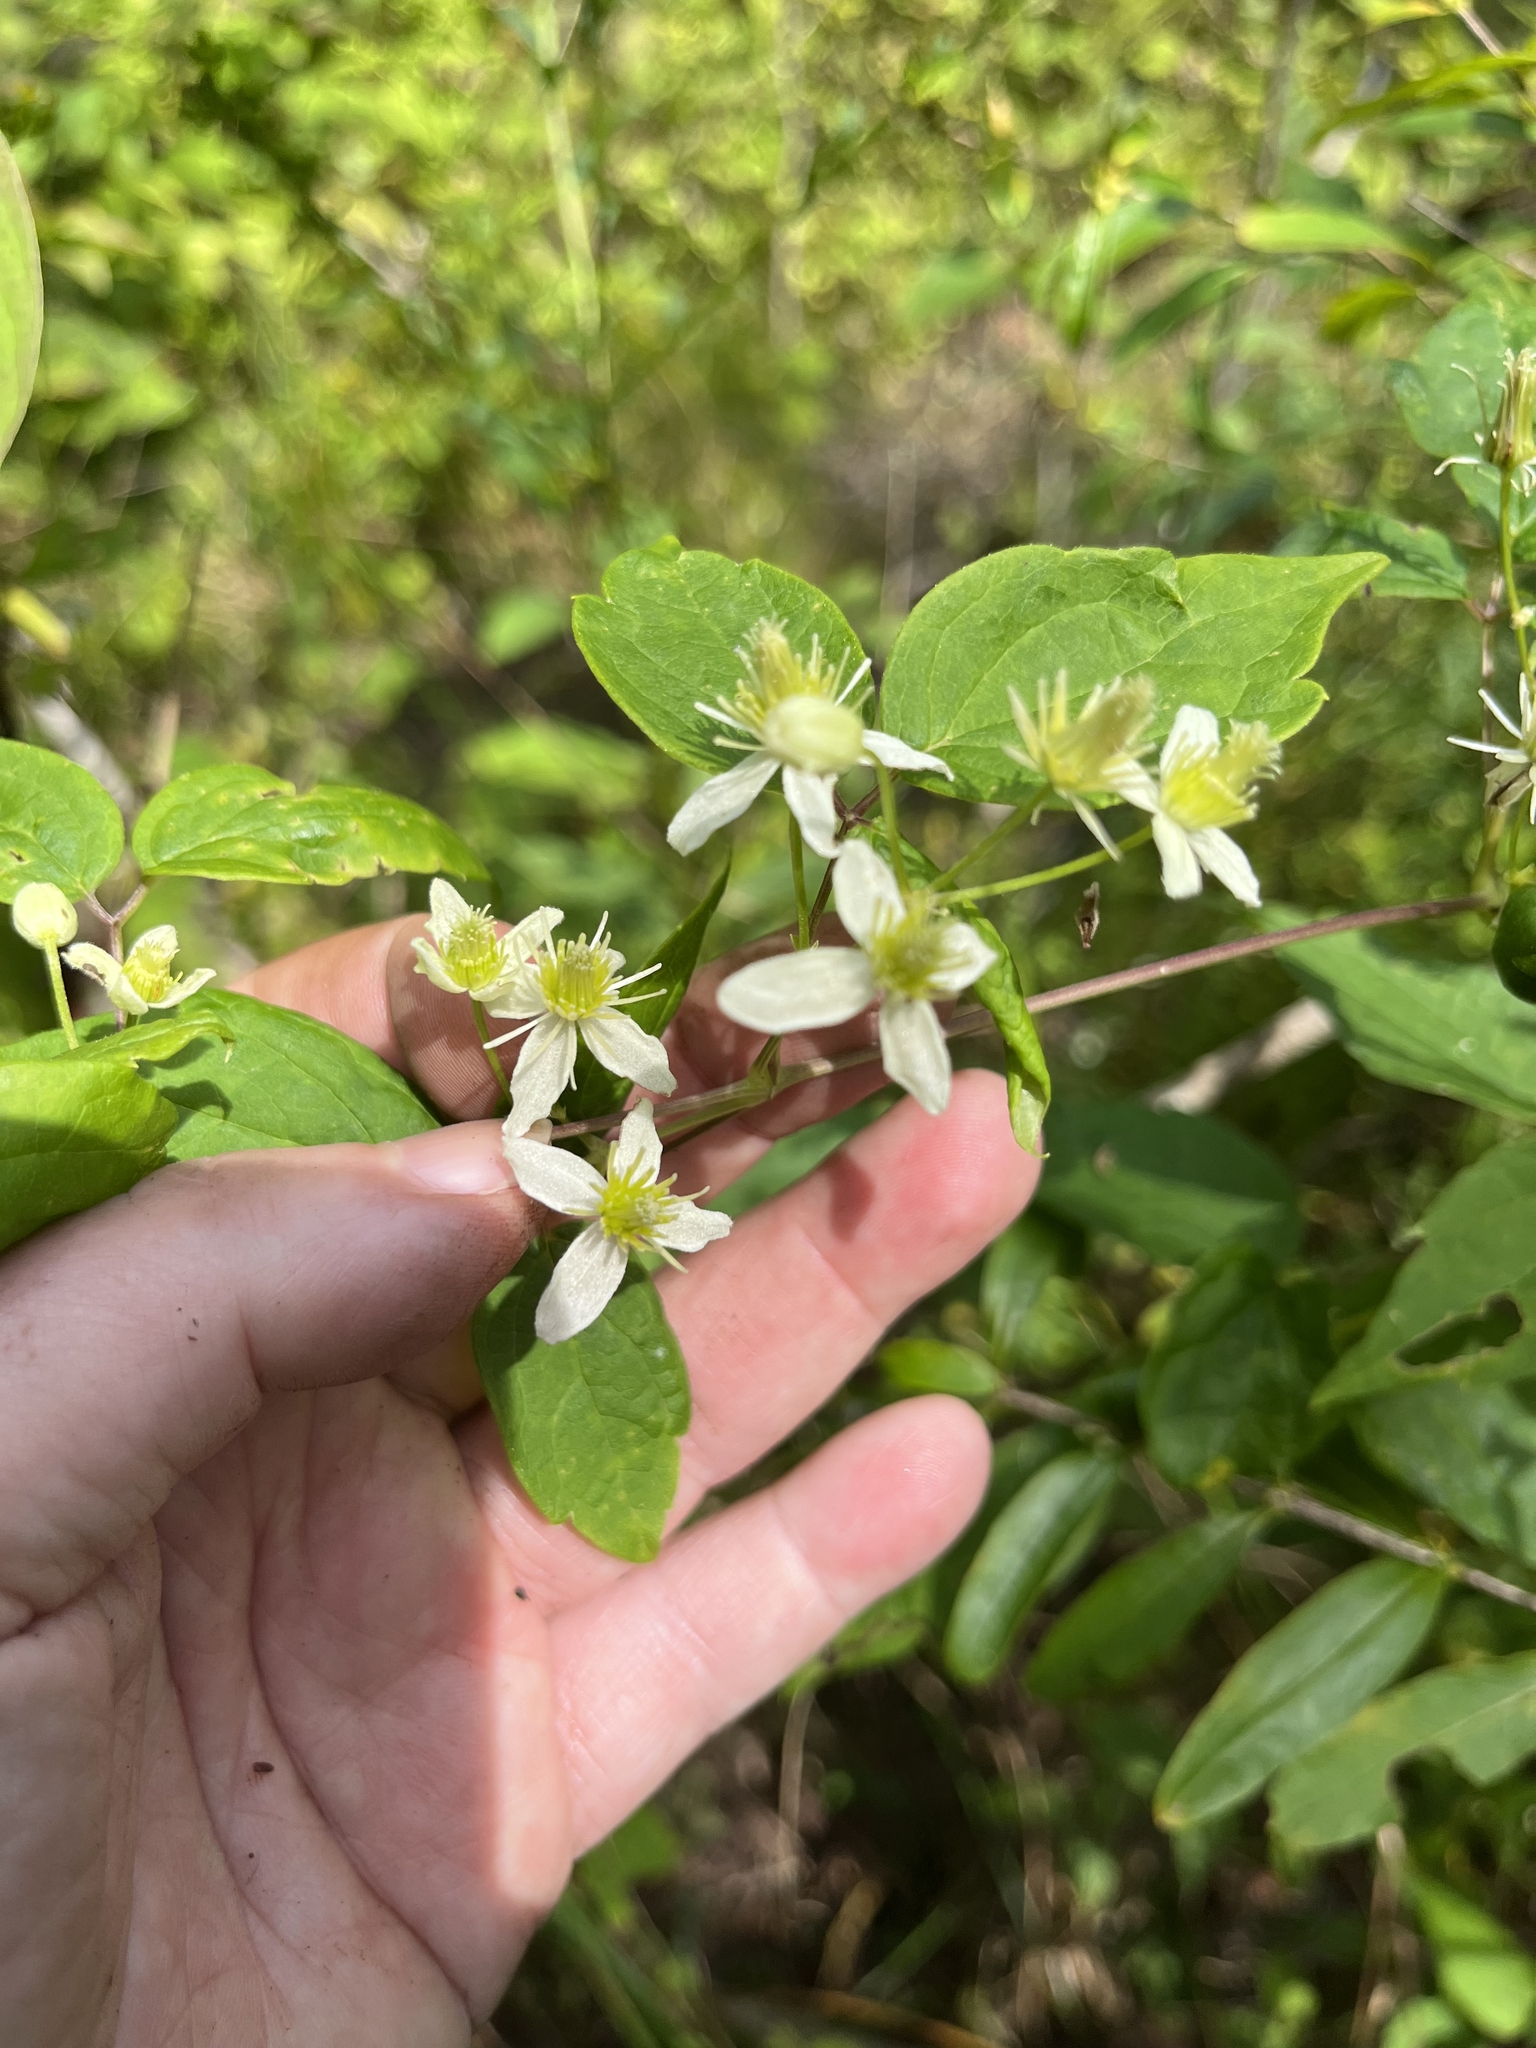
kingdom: Plantae
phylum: Tracheophyta
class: Magnoliopsida
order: Ranunculales
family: Ranunculaceae
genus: Clematis
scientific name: Clematis virginiana
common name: Virgin's-bower
